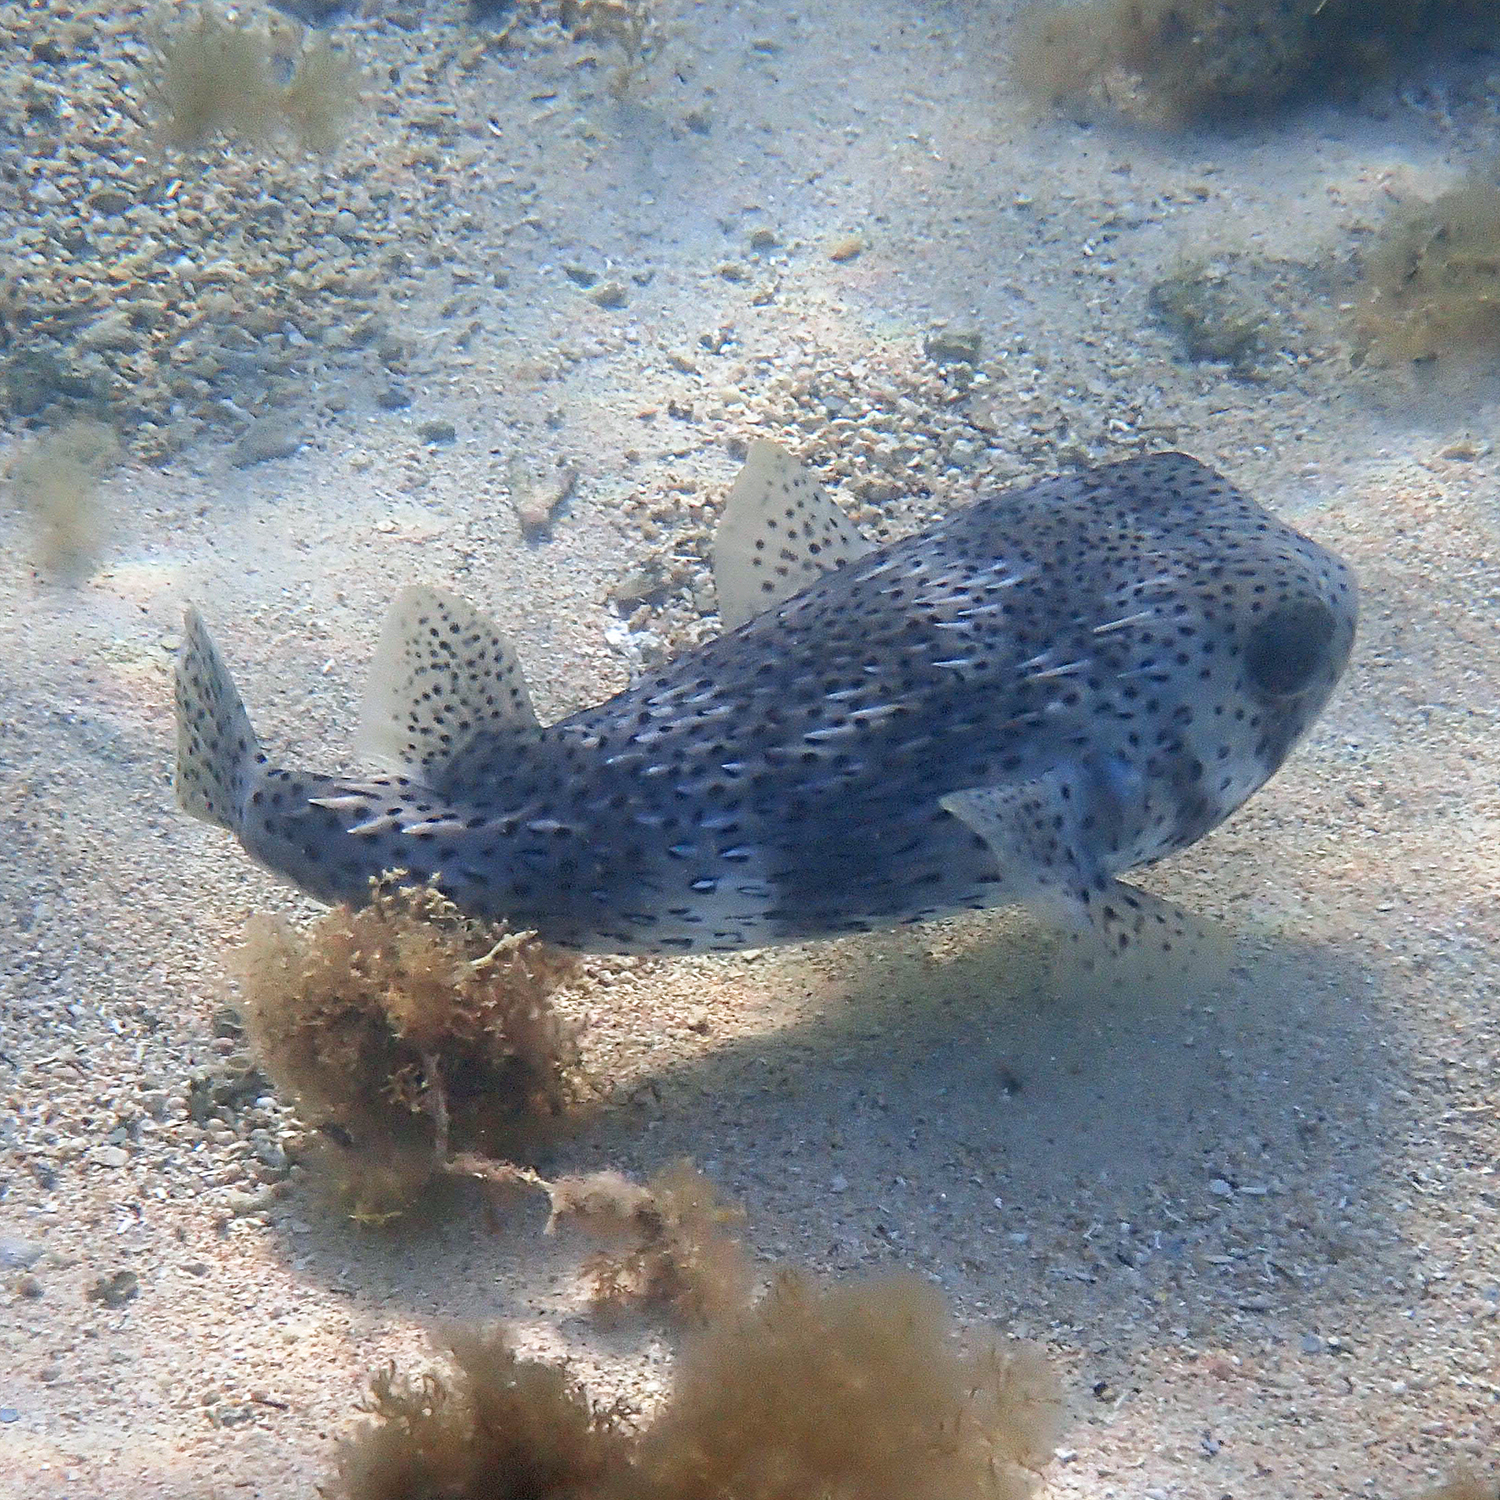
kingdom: Animalia
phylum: Chordata
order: Tetraodontiformes
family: Diodontidae
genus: Diodon
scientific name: Diodon hystrix
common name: Giant porcupinefish
